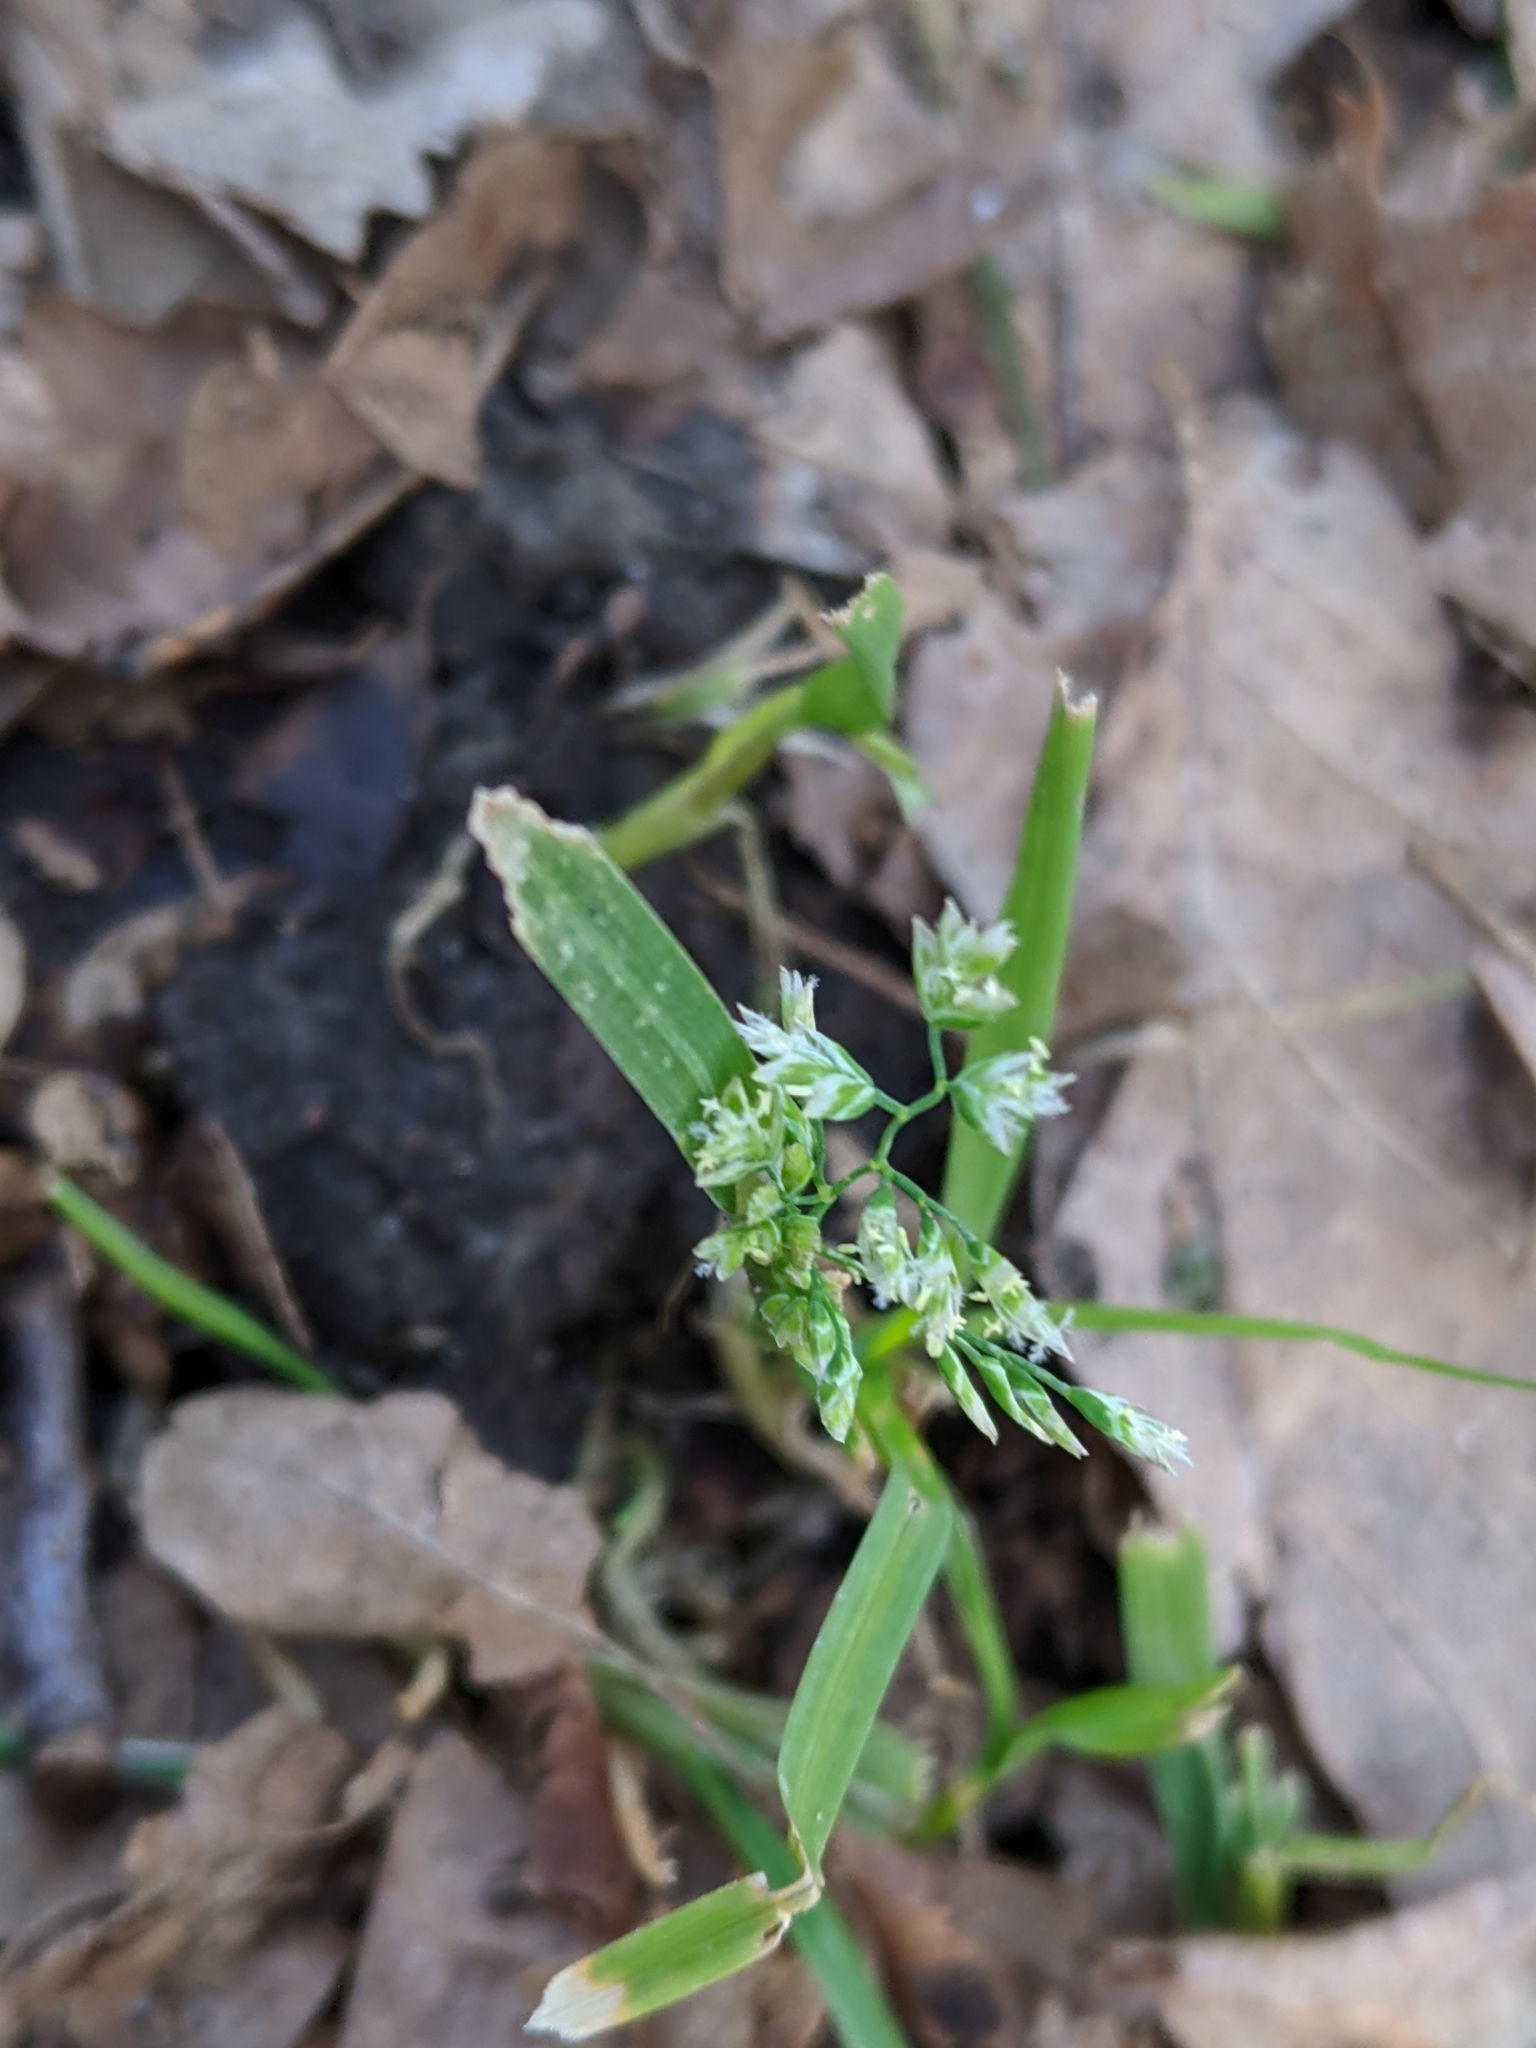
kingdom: Plantae
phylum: Tracheophyta
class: Liliopsida
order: Poales
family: Poaceae
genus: Poa
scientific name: Poa annua
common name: Annual bluegrass
